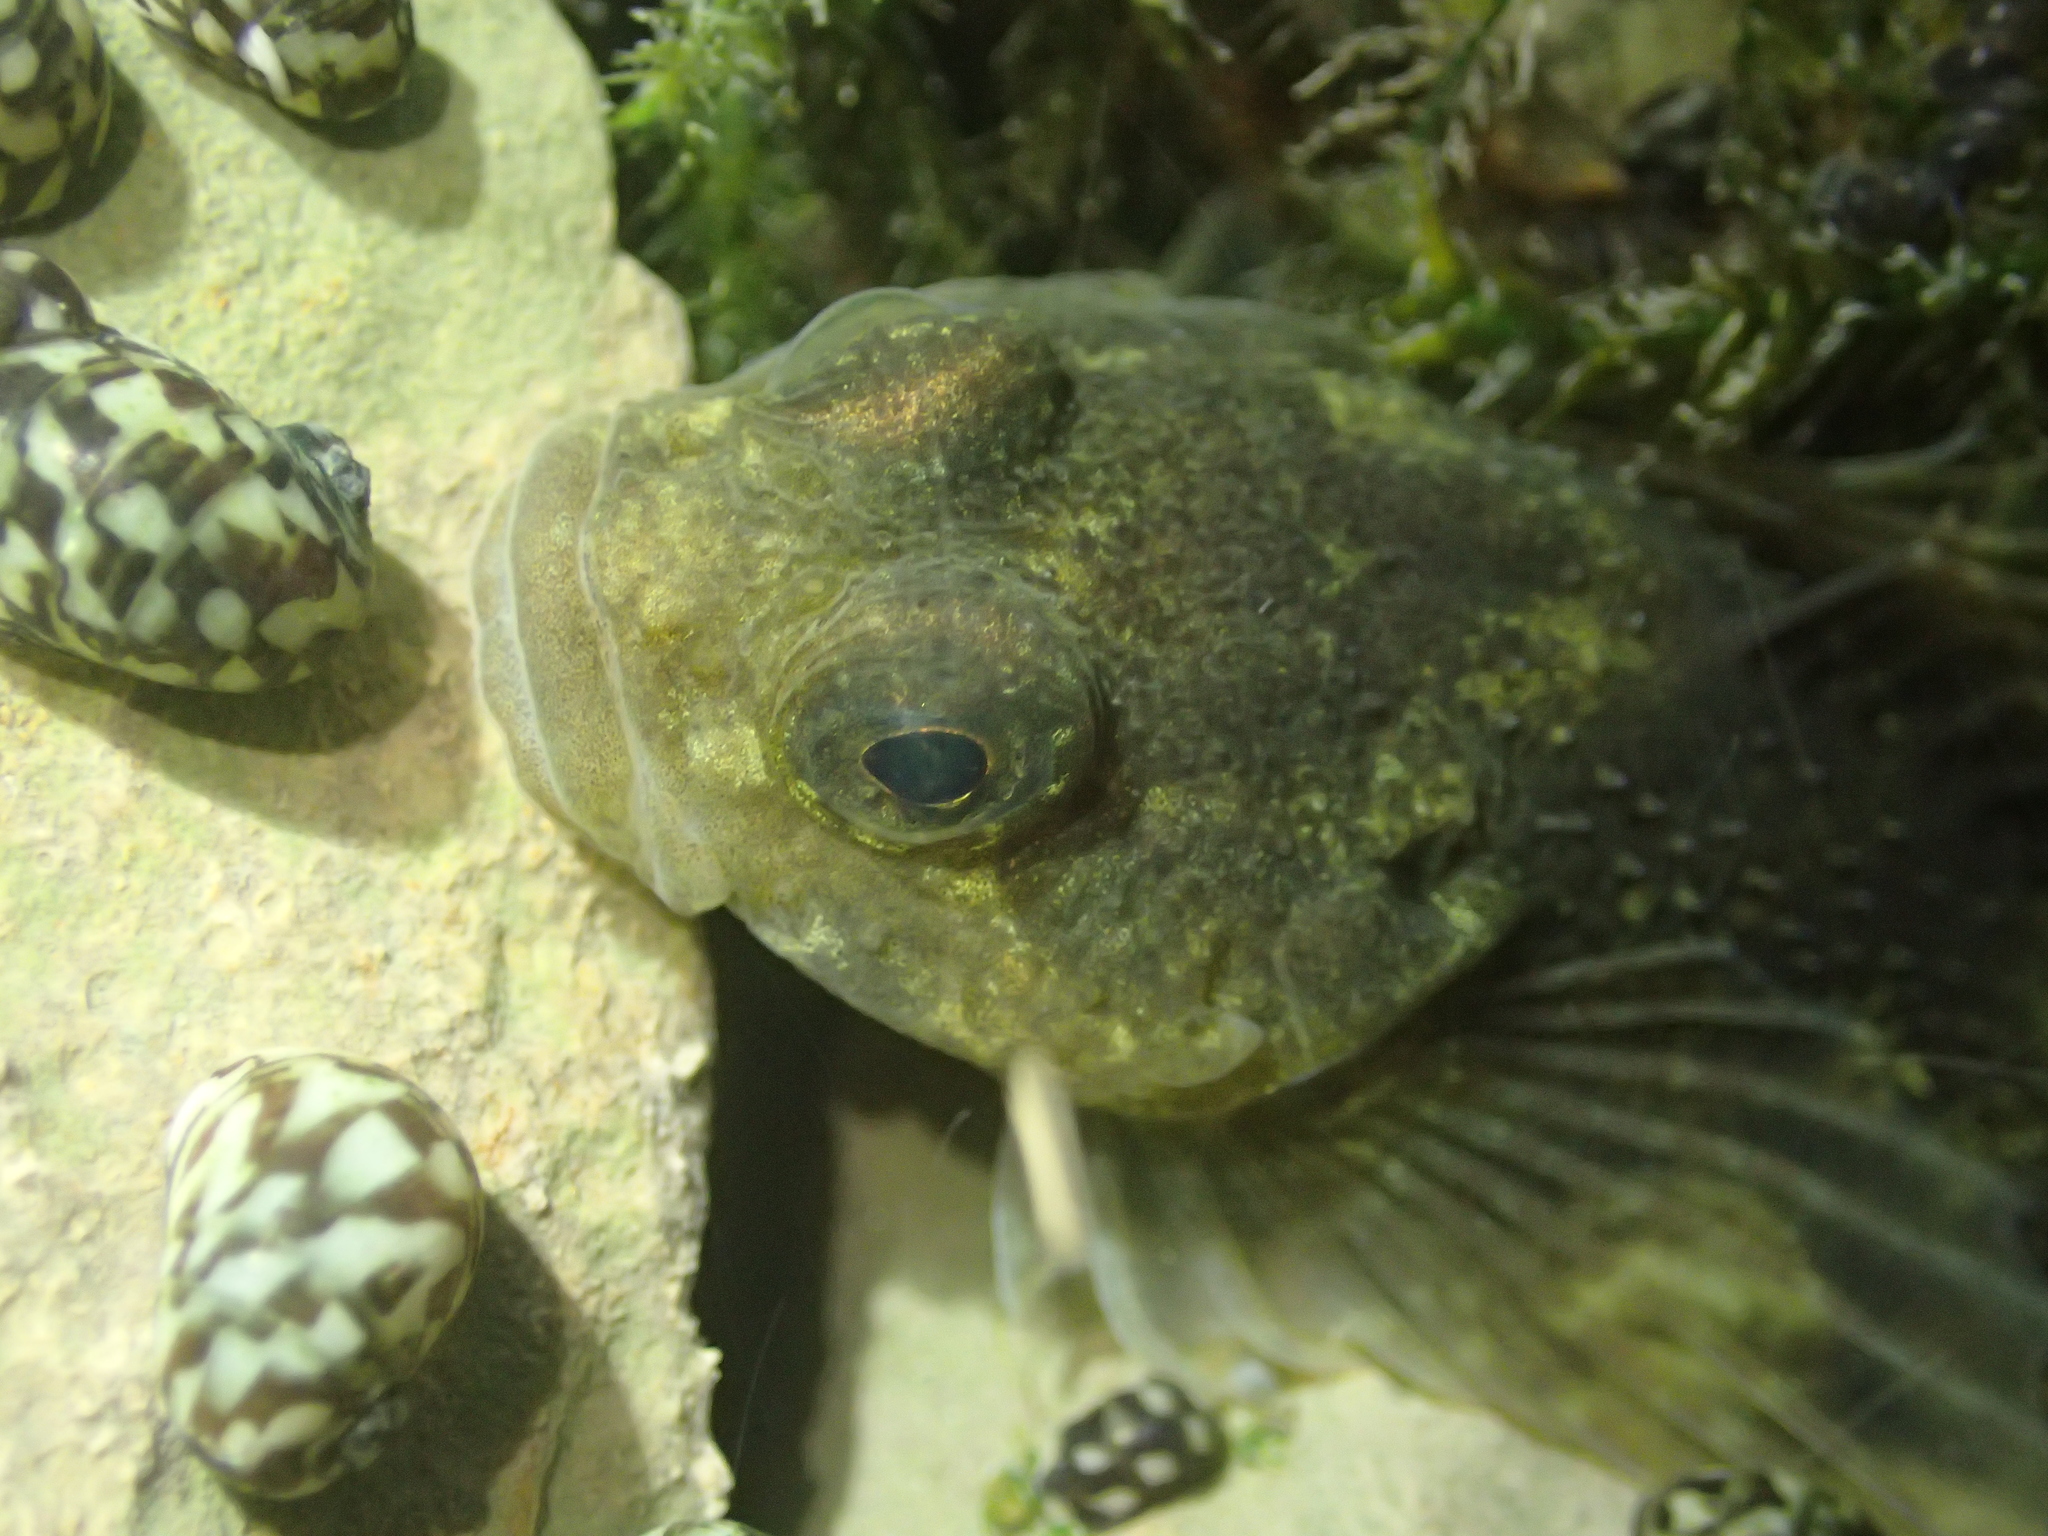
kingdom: Animalia
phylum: Chordata
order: Scorpaeniformes
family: Cottidae
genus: Cottus
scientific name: Cottus petiti
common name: Lez sculpin
